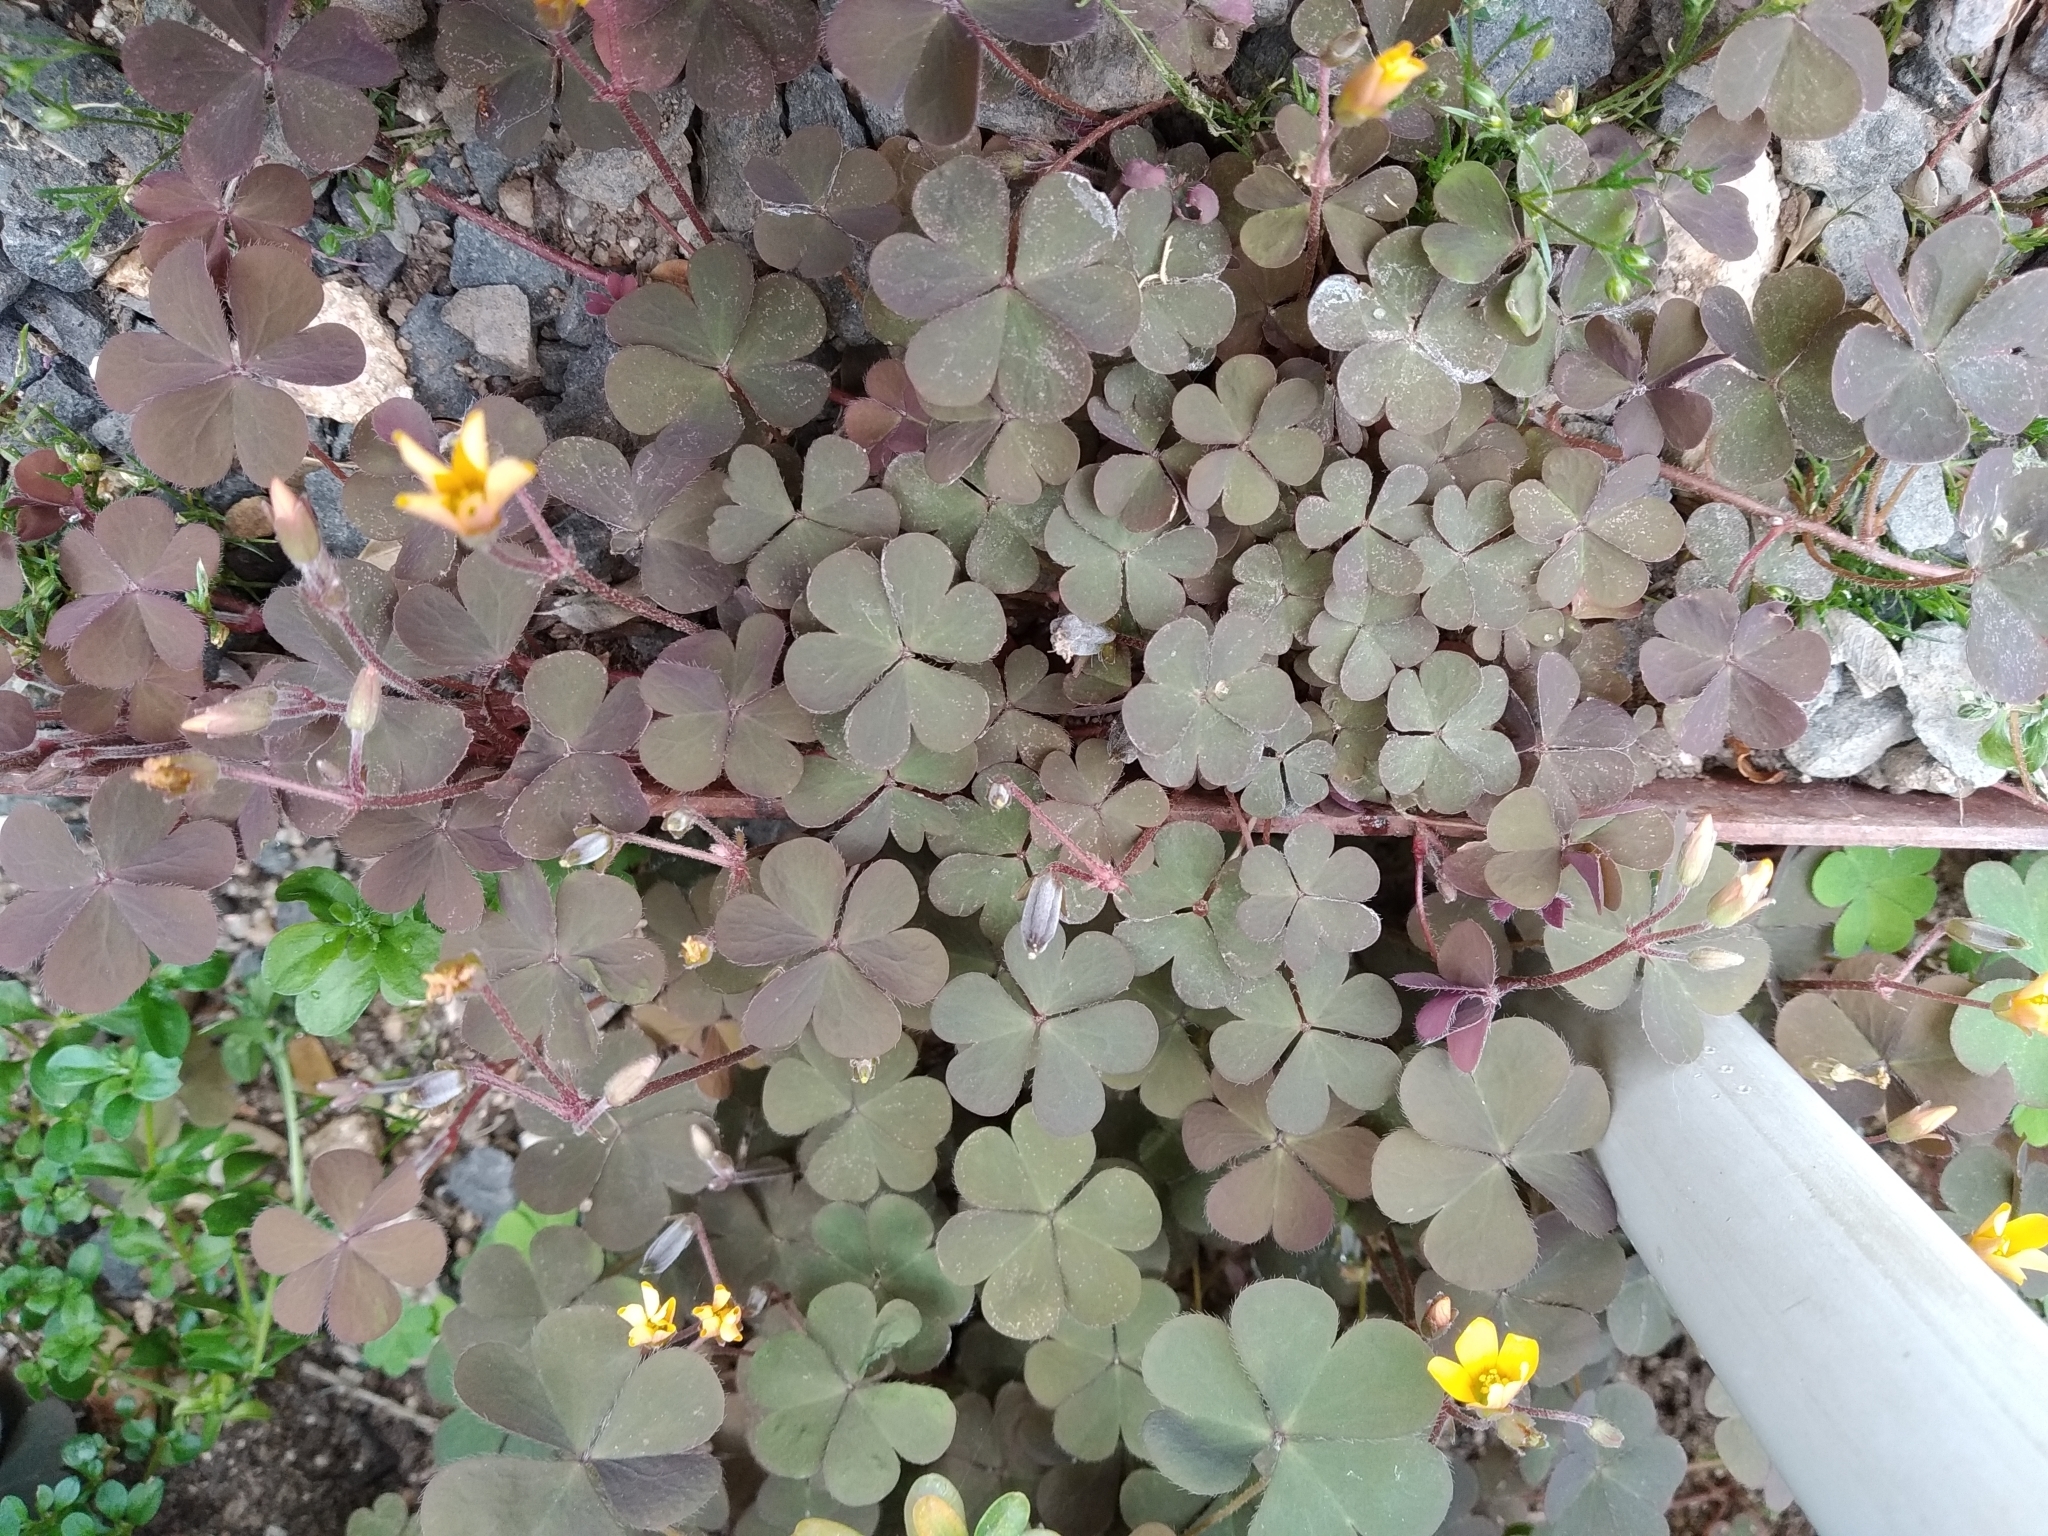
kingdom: Plantae
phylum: Tracheophyta
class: Magnoliopsida
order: Oxalidales
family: Oxalidaceae
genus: Oxalis
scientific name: Oxalis corniculata
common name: Procumbent yellow-sorrel
